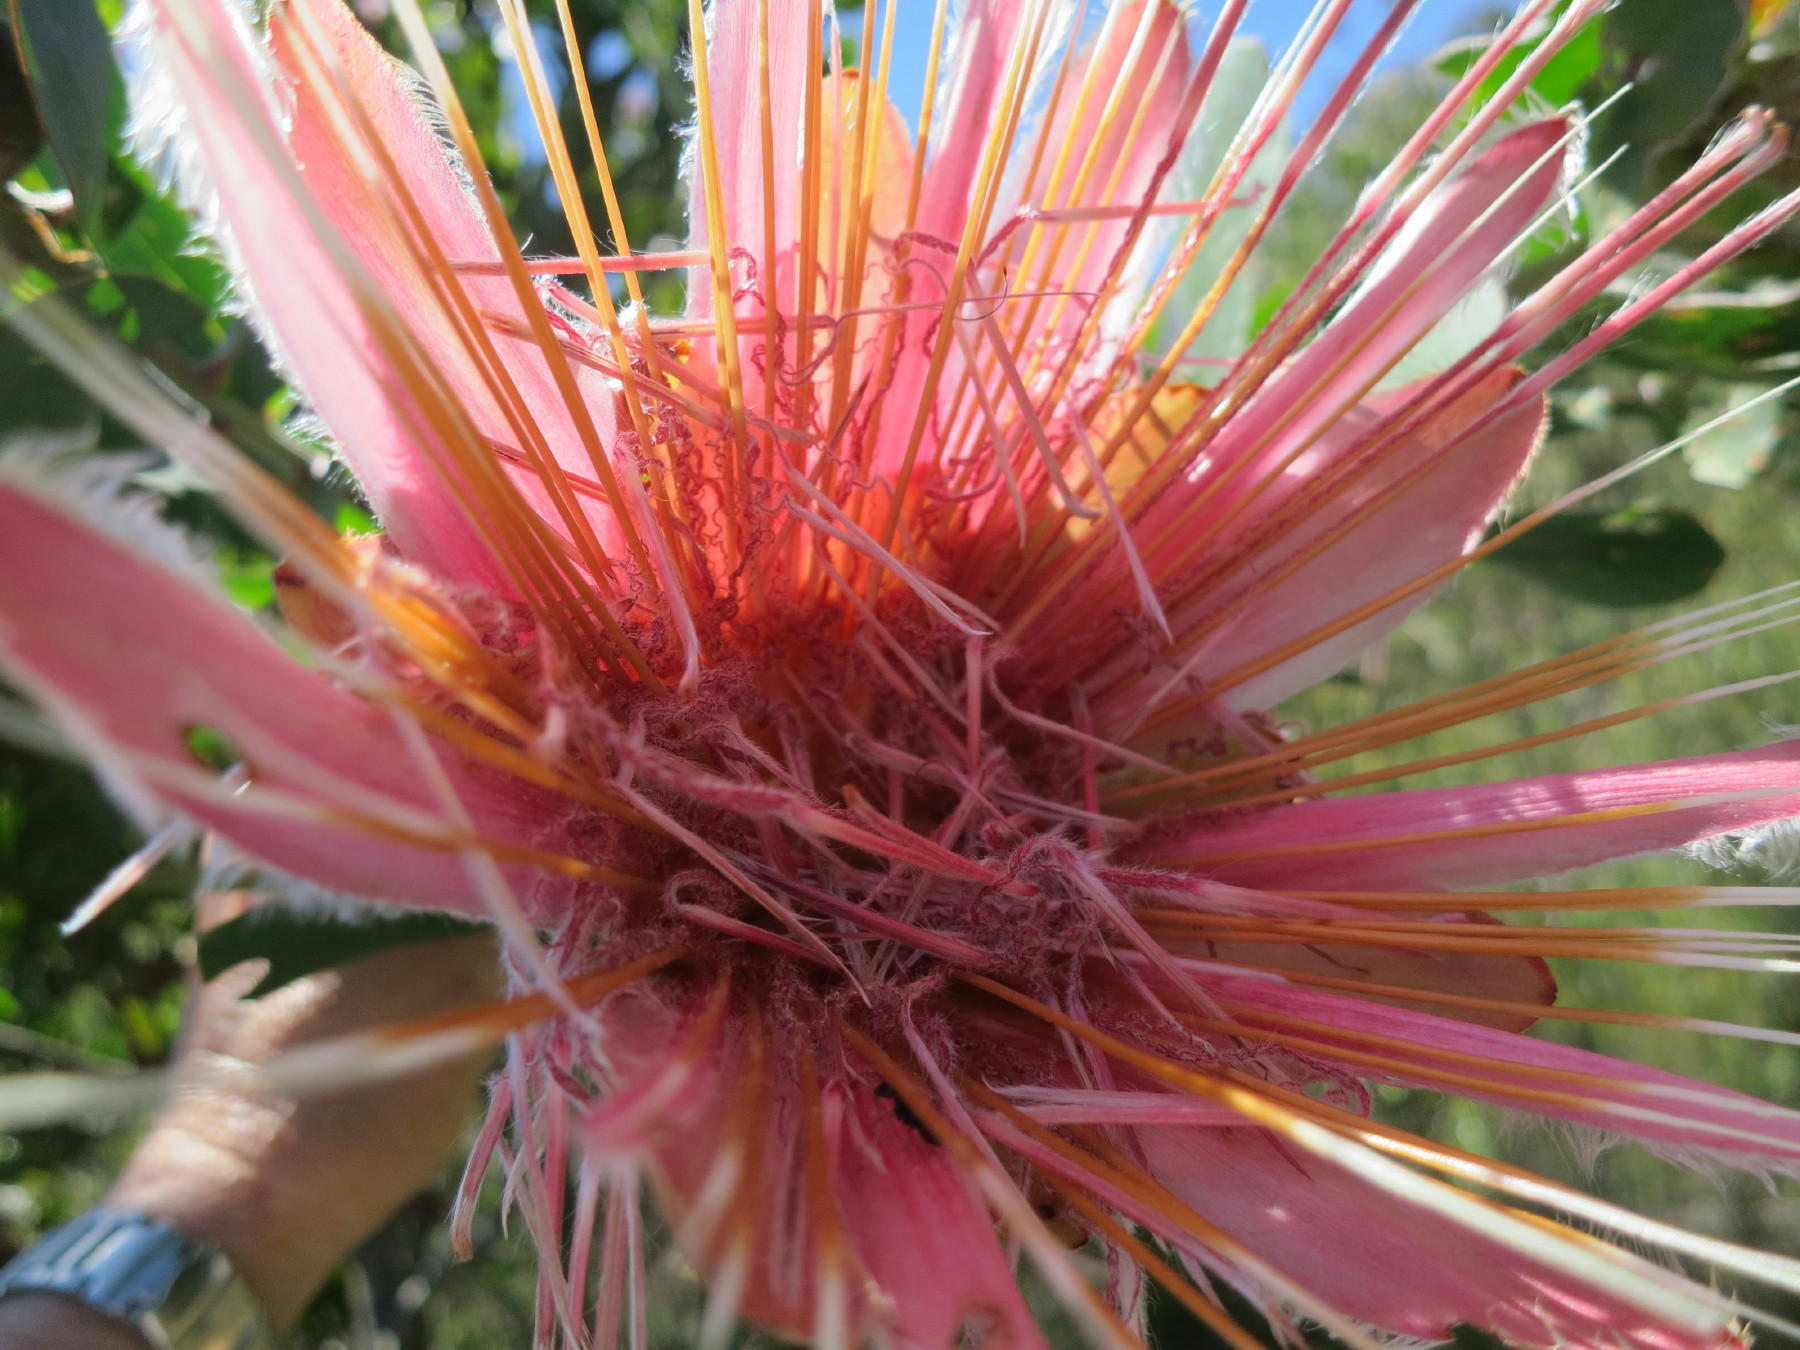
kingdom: Plantae
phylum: Tracheophyta
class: Magnoliopsida
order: Proteales
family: Proteaceae
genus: Protea
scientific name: Protea aurea
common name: Shuttlecock sugarbush
